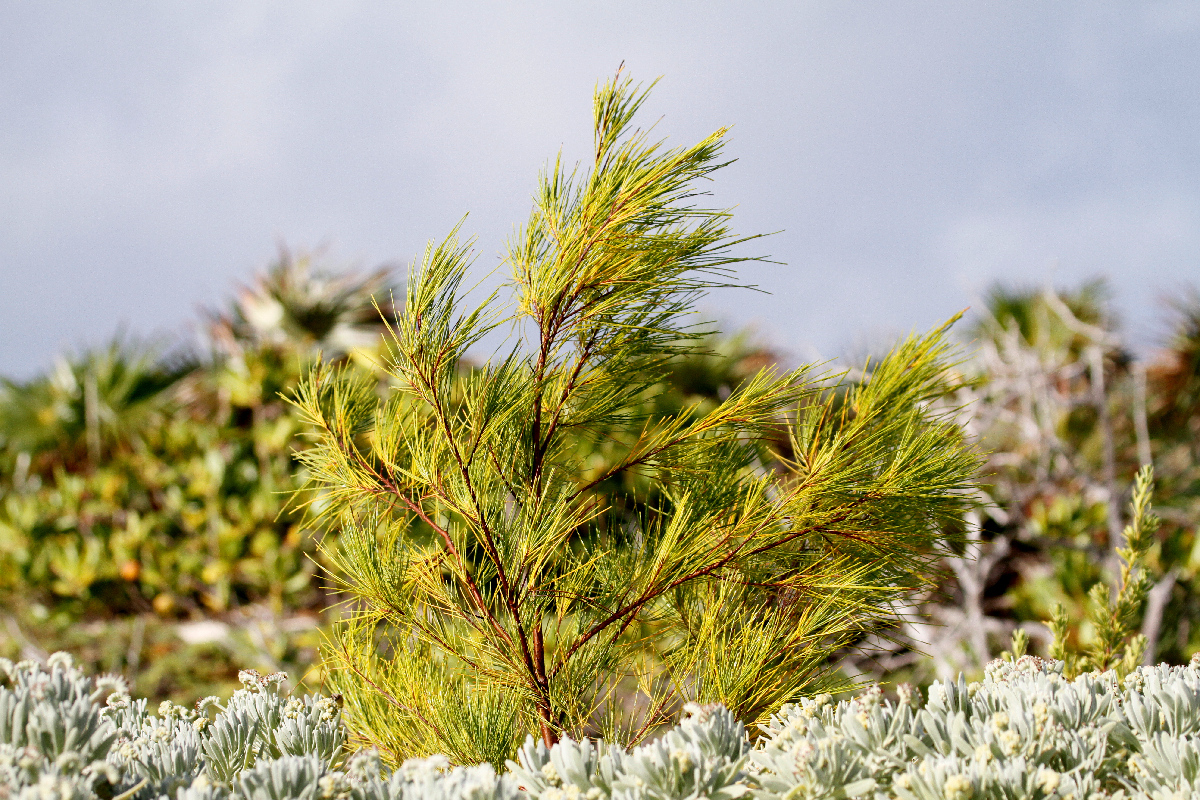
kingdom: Plantae
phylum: Tracheophyta
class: Magnoliopsida
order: Fagales
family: Casuarinaceae
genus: Casuarina
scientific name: Casuarina equisetifolia
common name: Beach sheoak
